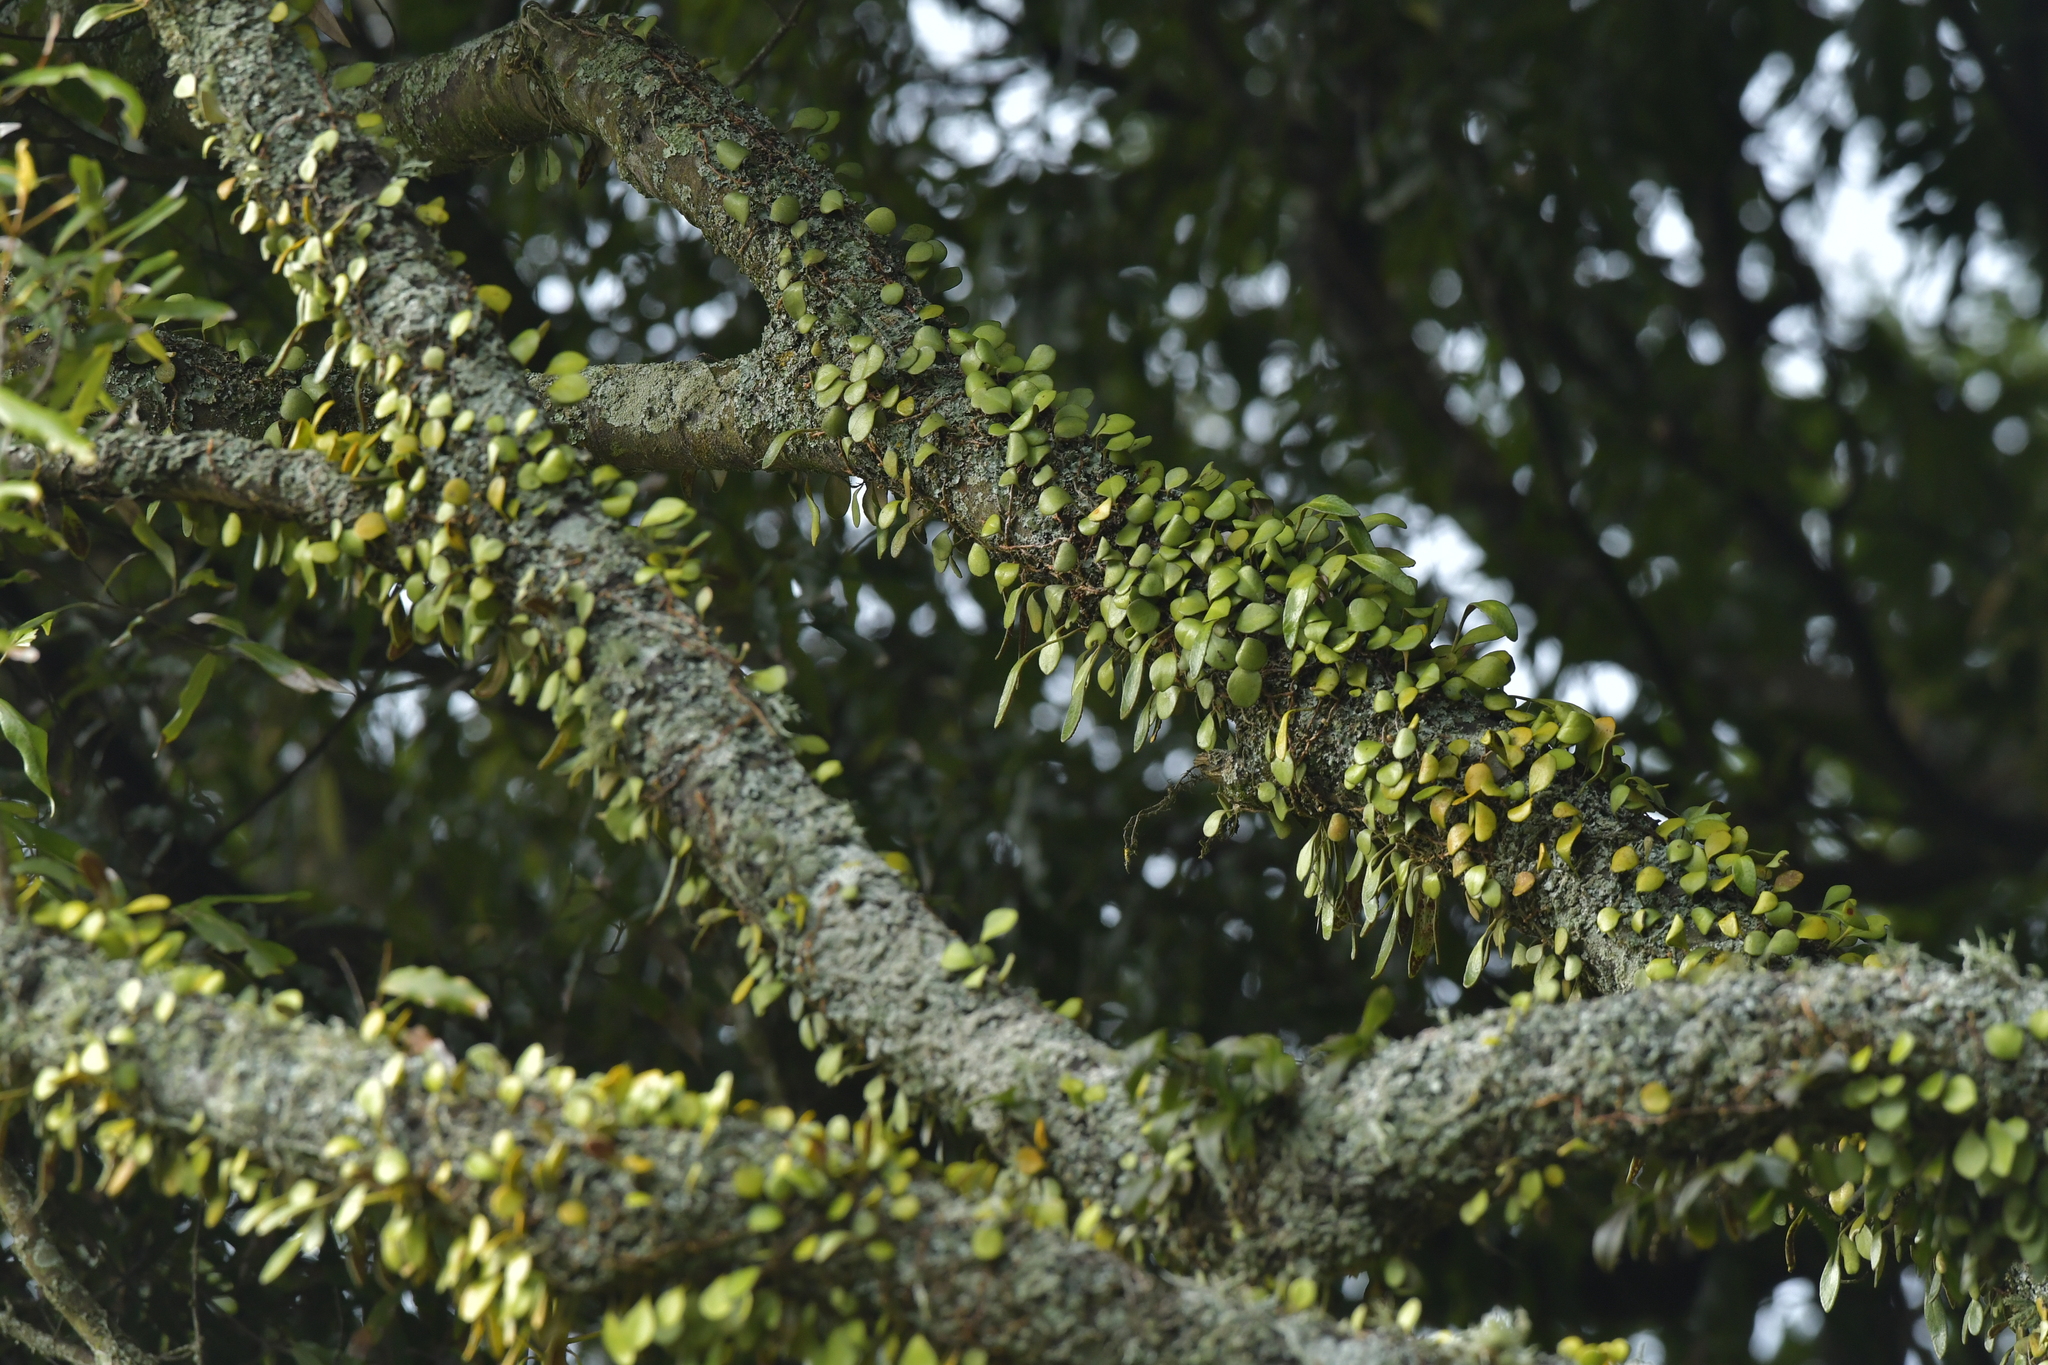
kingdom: Plantae
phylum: Tracheophyta
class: Polypodiopsida
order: Polypodiales
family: Polypodiaceae
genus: Pyrrosia
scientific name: Pyrrosia eleagnifolia
